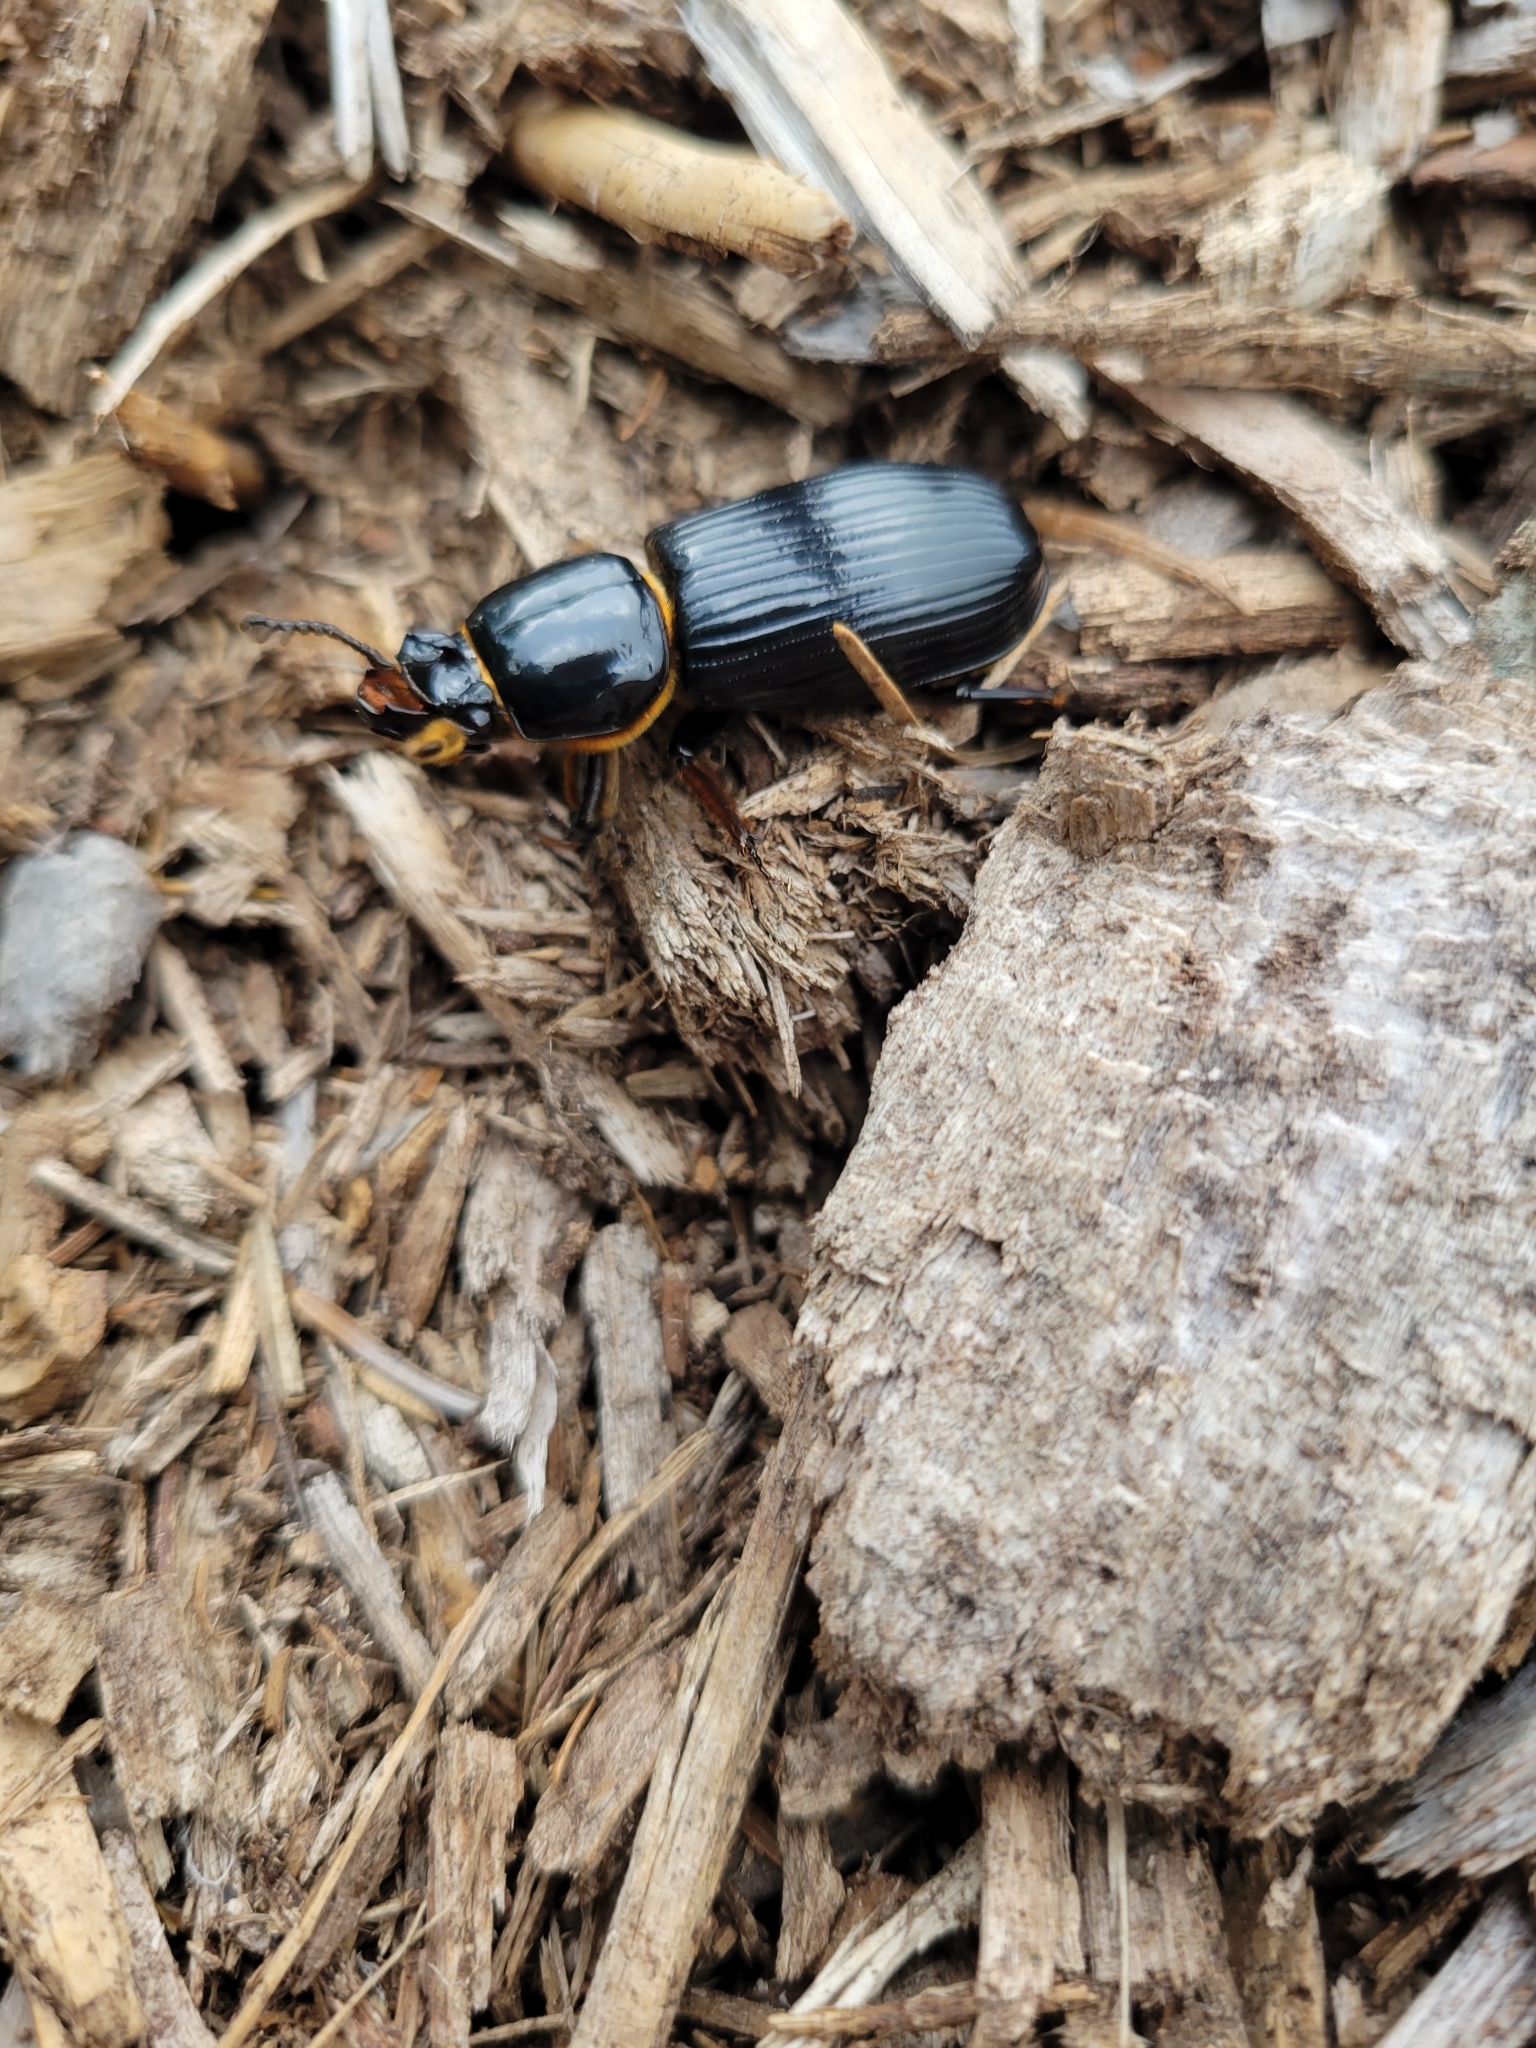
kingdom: Animalia
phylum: Arthropoda
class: Insecta
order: Coleoptera
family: Passalidae
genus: Odontotaenius
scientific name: Odontotaenius disjunctus
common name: Patent leather beetle
